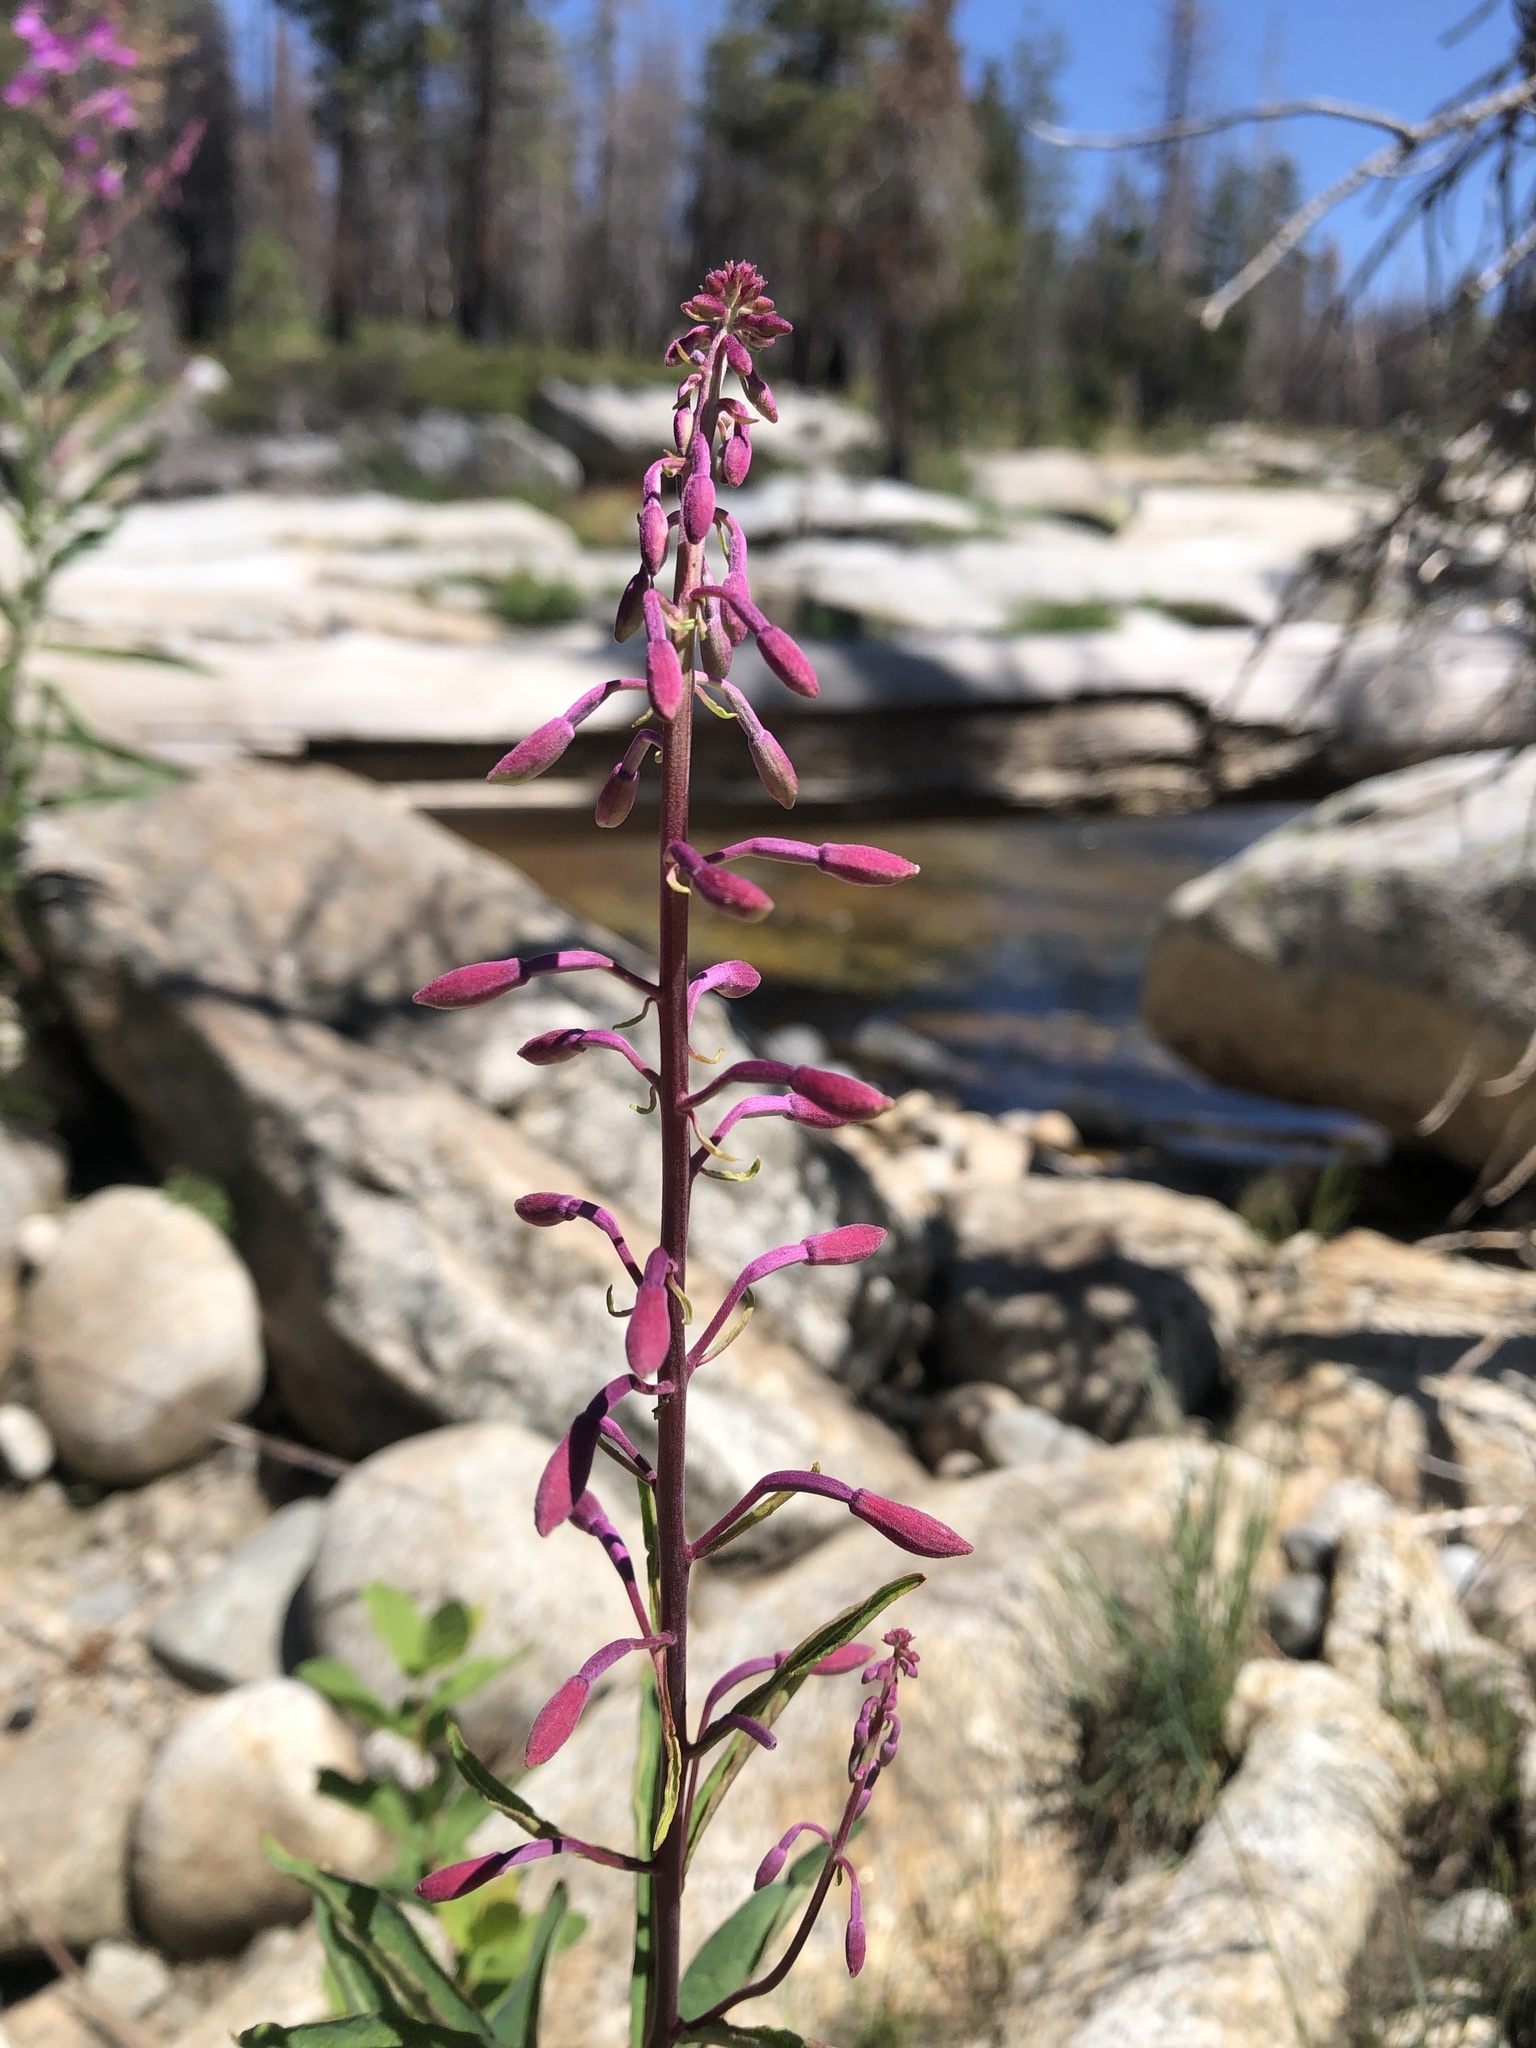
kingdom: Plantae
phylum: Tracheophyta
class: Magnoliopsida
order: Myrtales
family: Onagraceae
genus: Chamaenerion
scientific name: Chamaenerion angustifolium
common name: Fireweed
